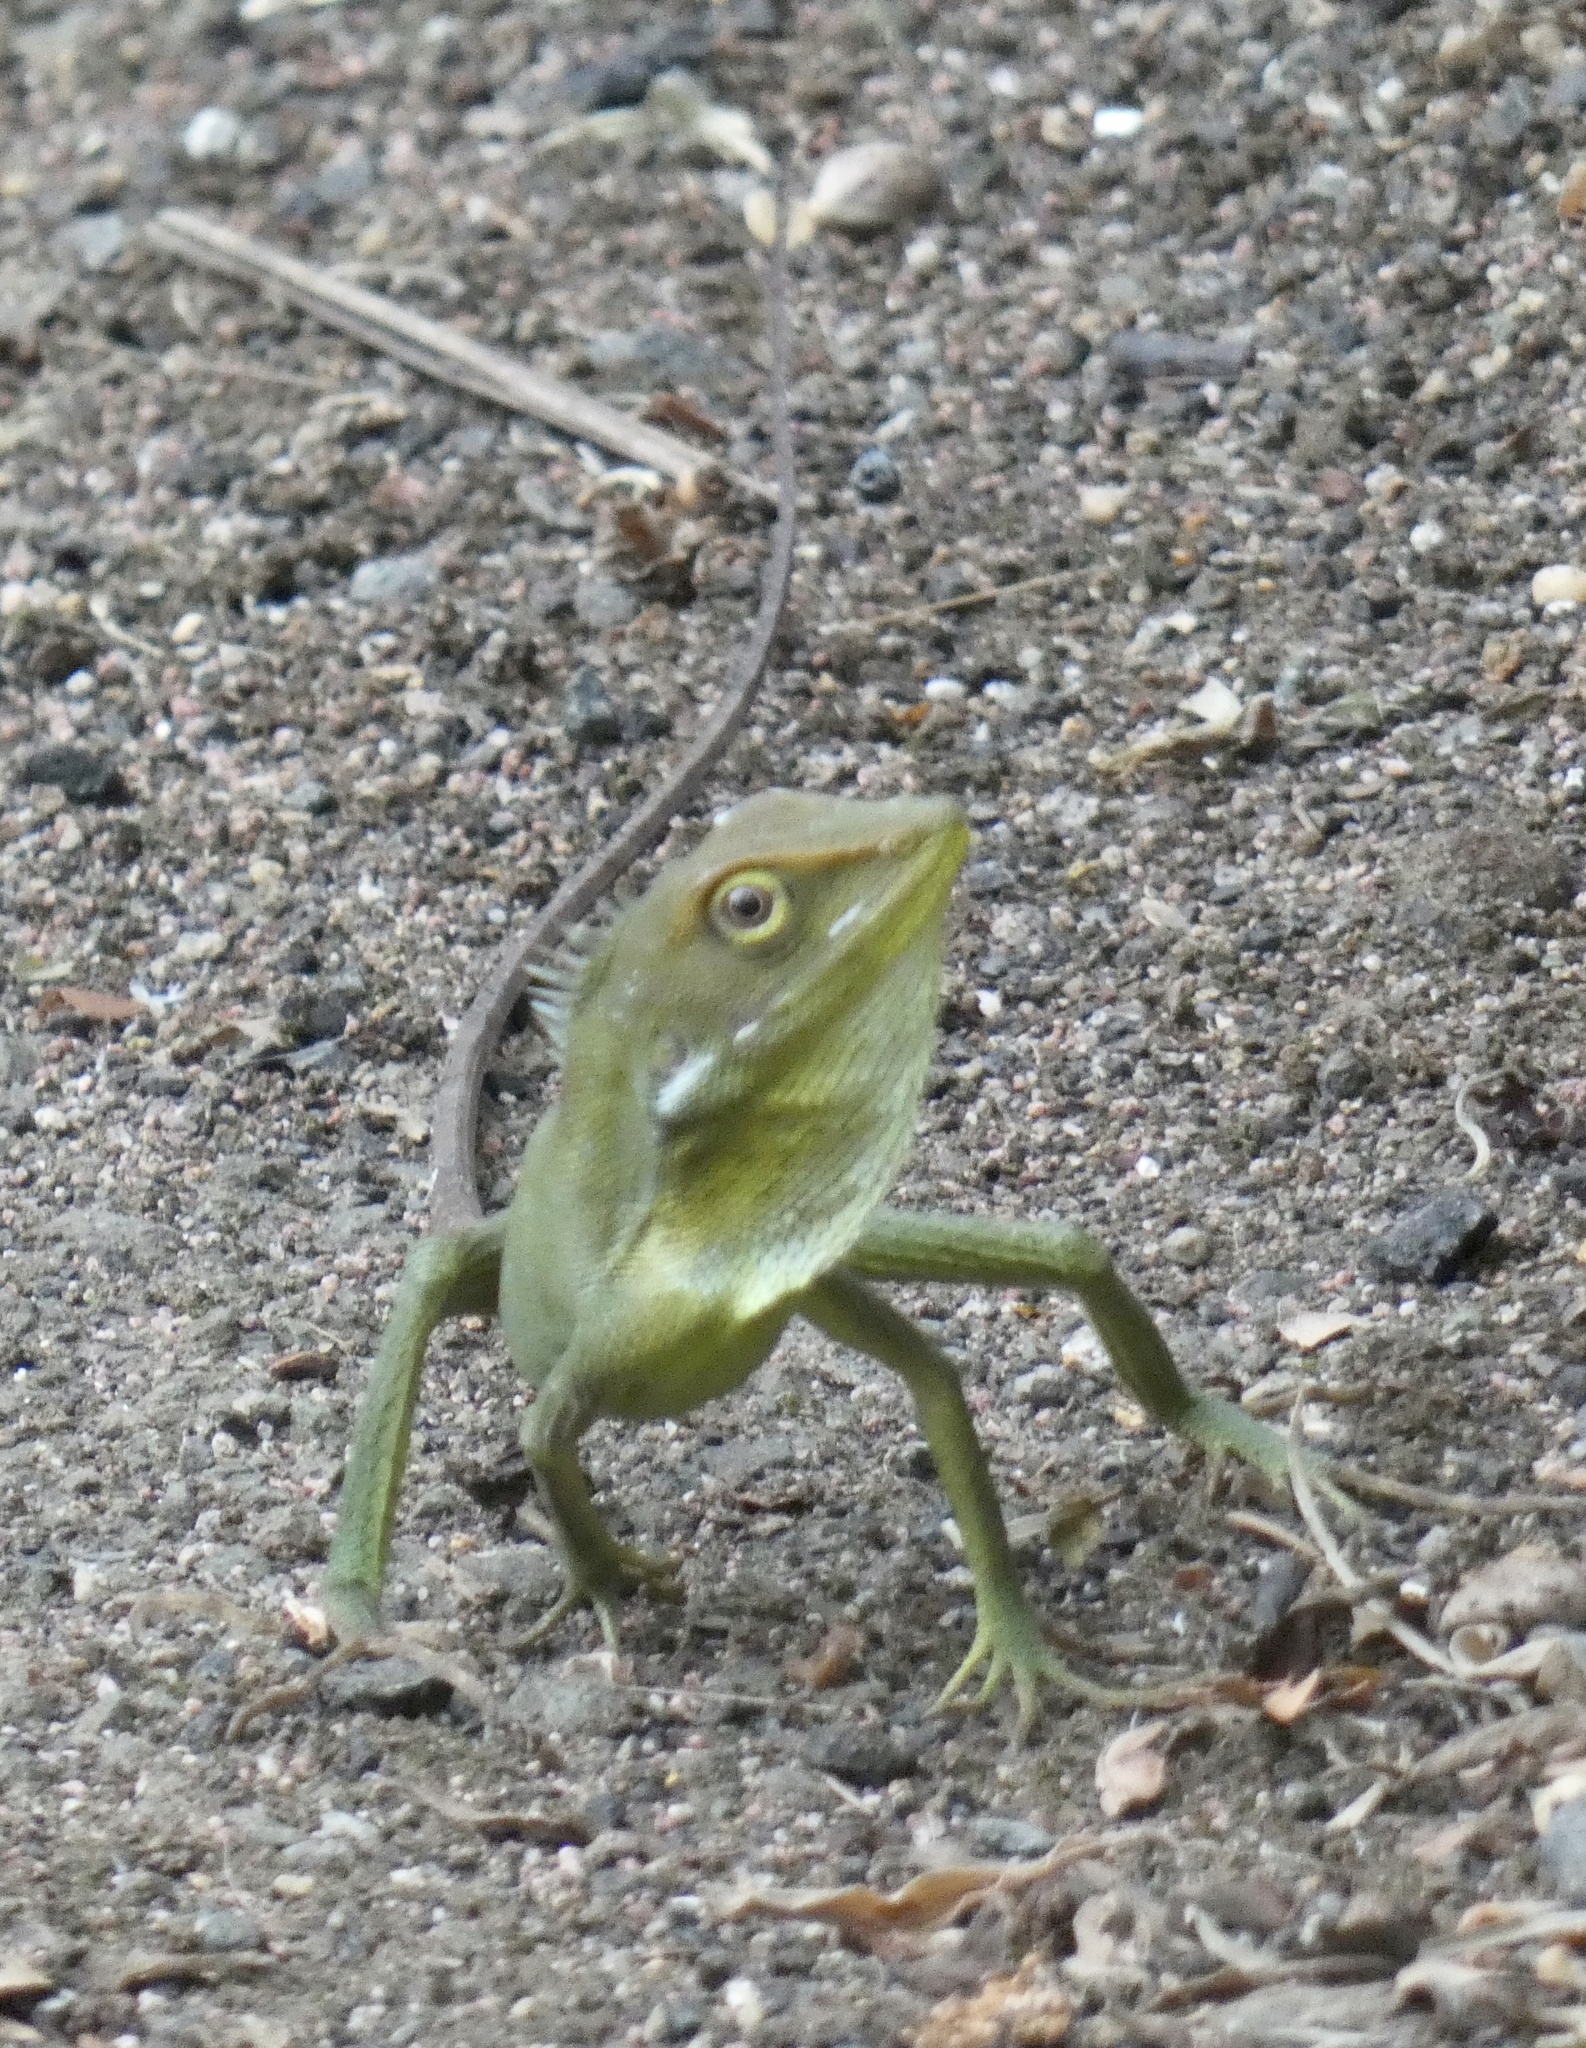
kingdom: Animalia
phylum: Chordata
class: Squamata
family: Agamidae
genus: Bronchocela
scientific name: Bronchocela cristatella
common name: Green crested lizard
